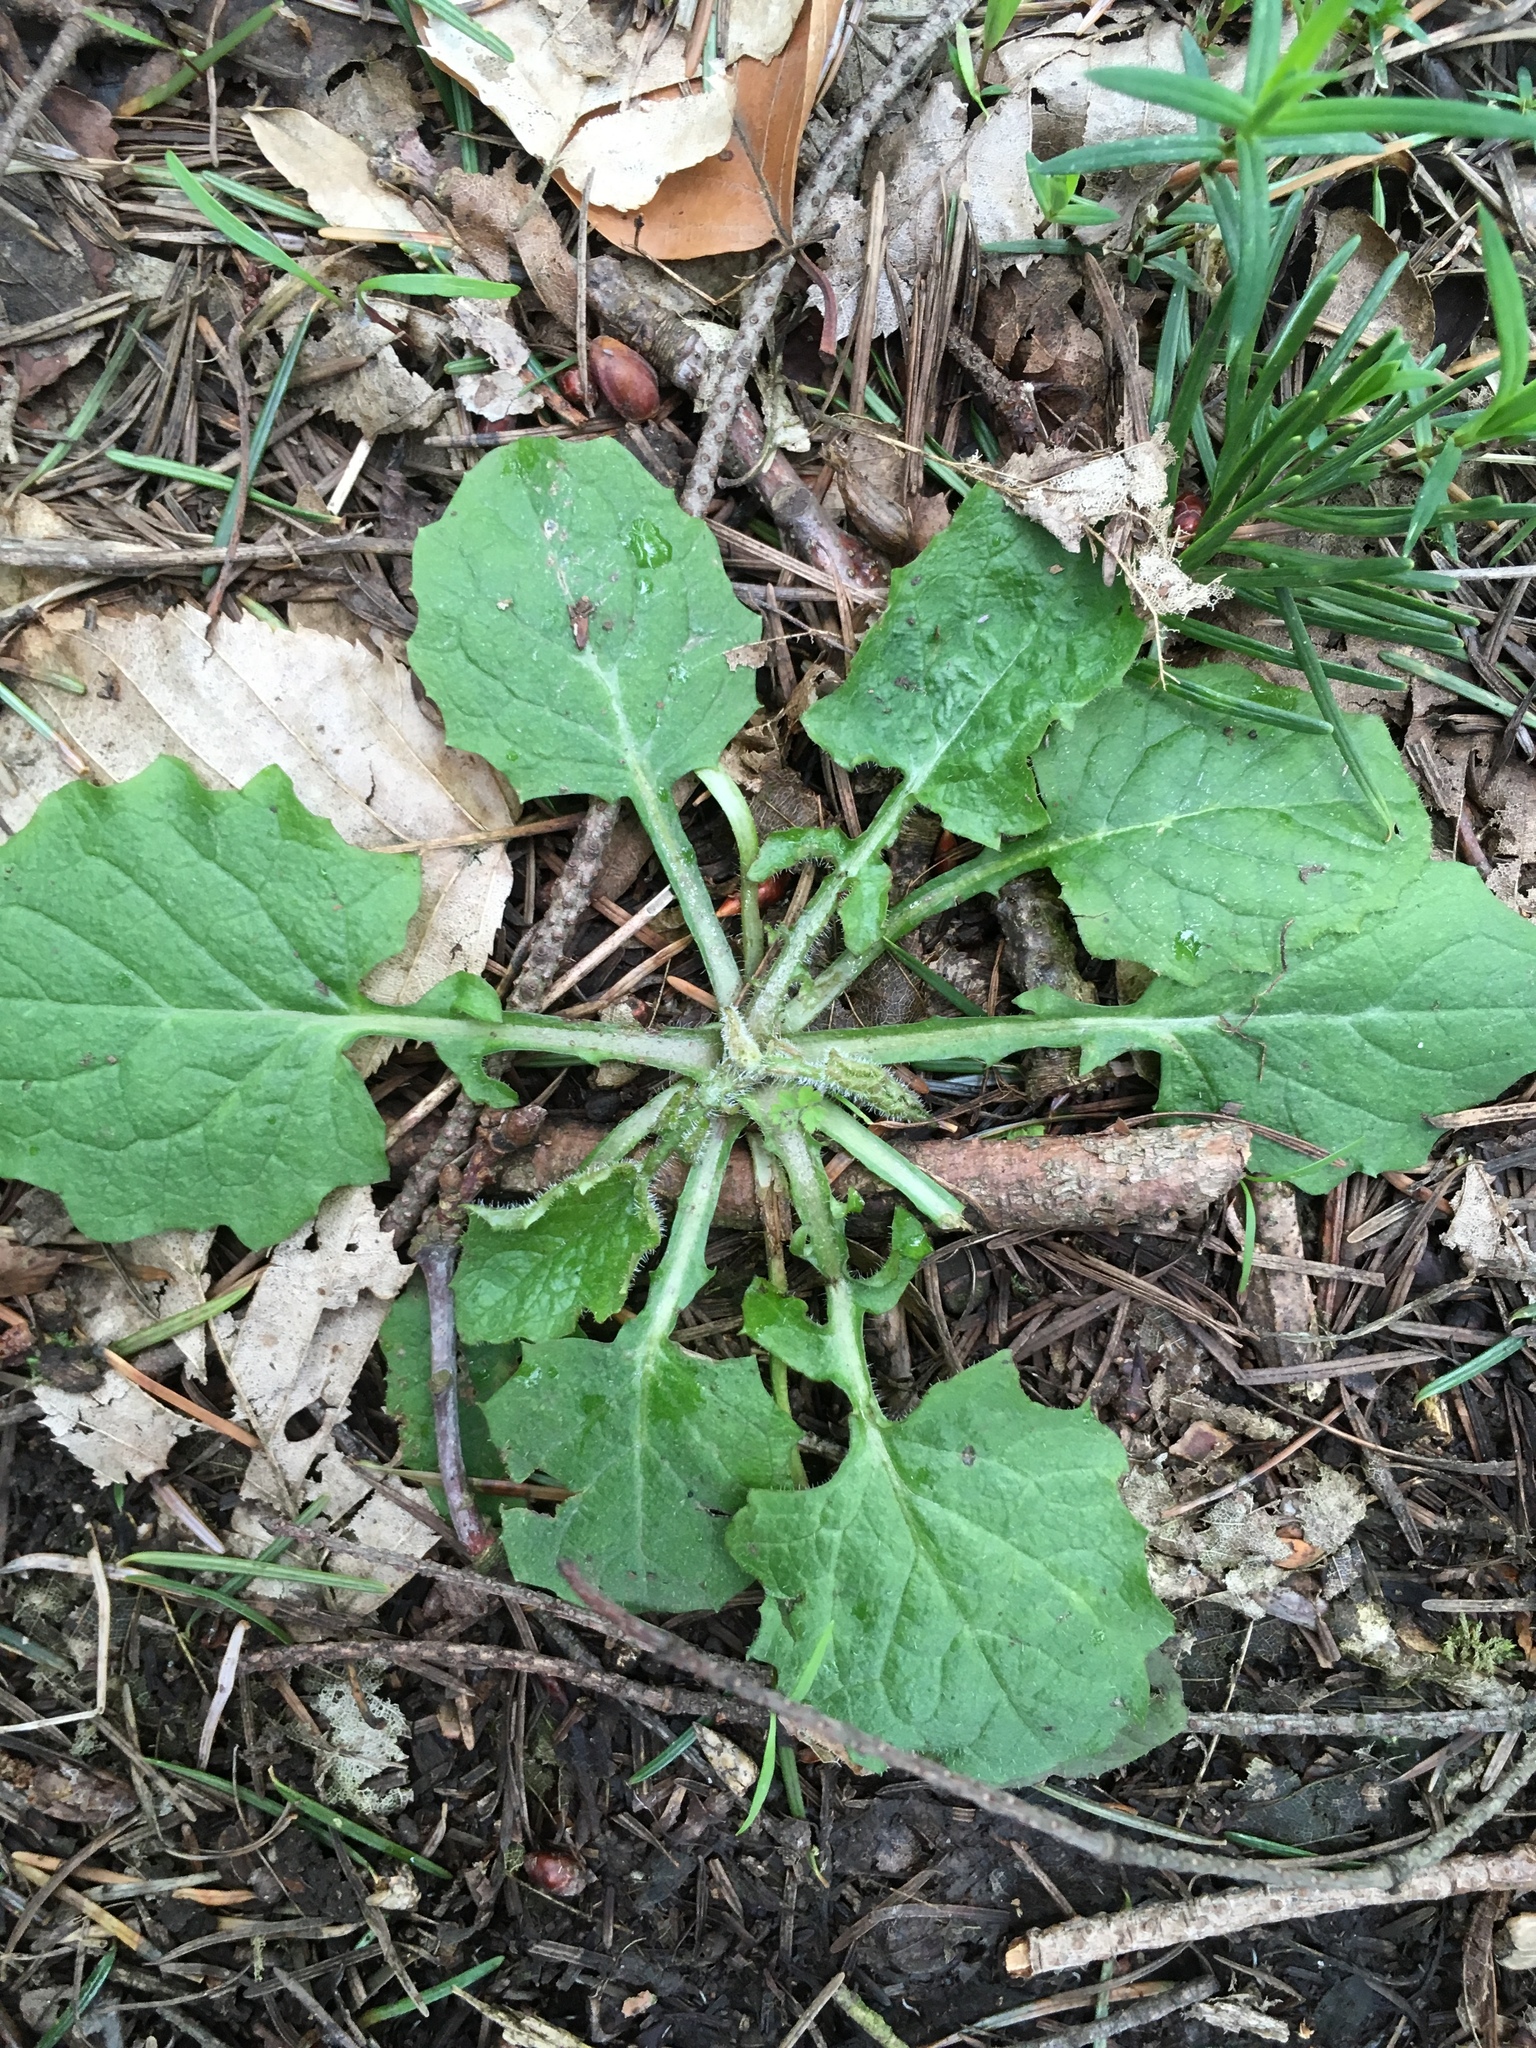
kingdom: Plantae
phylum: Tracheophyta
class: Magnoliopsida
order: Asterales
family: Asteraceae
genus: Lapsana
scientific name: Lapsana communis
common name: Nipplewort
